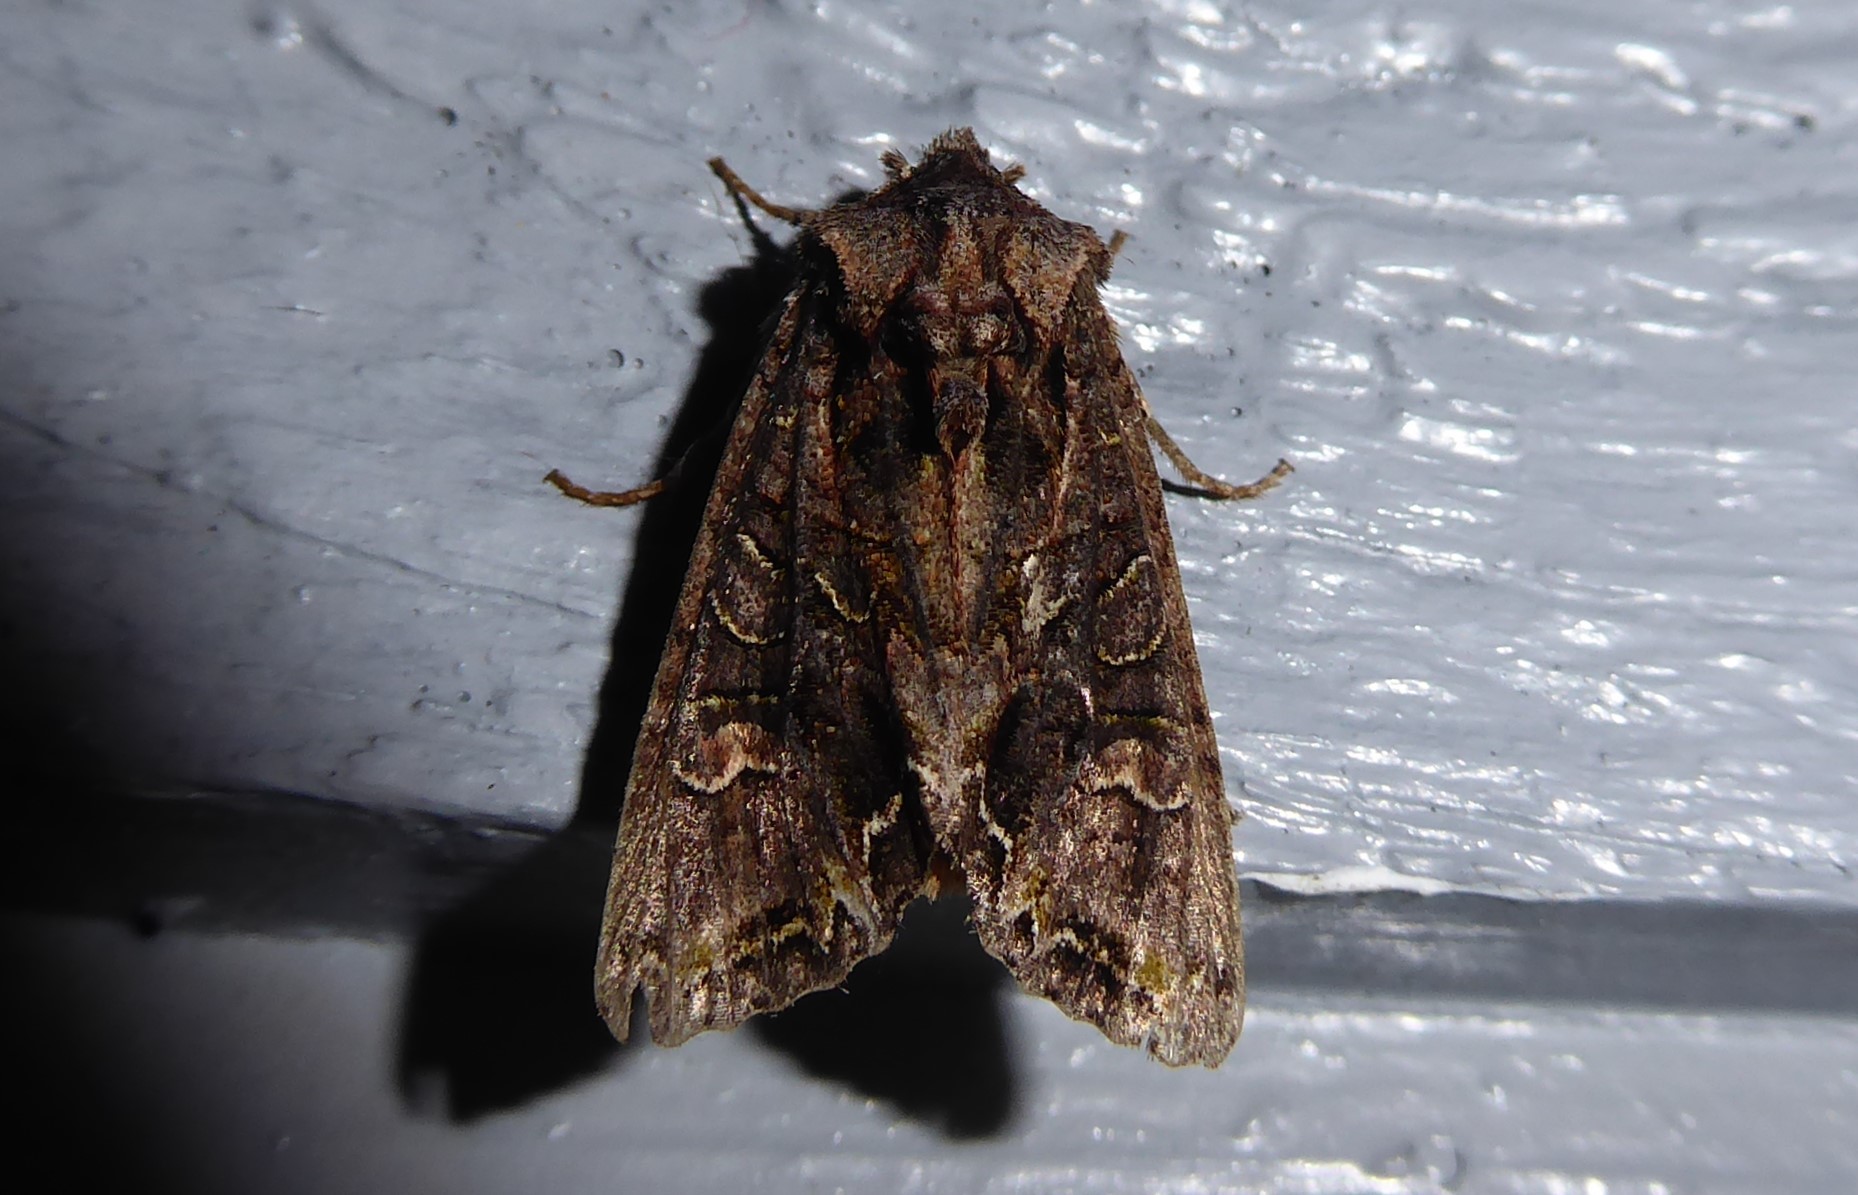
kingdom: Animalia
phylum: Arthropoda
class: Insecta
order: Lepidoptera
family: Noctuidae
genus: Ichneutica
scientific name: Ichneutica insignis
